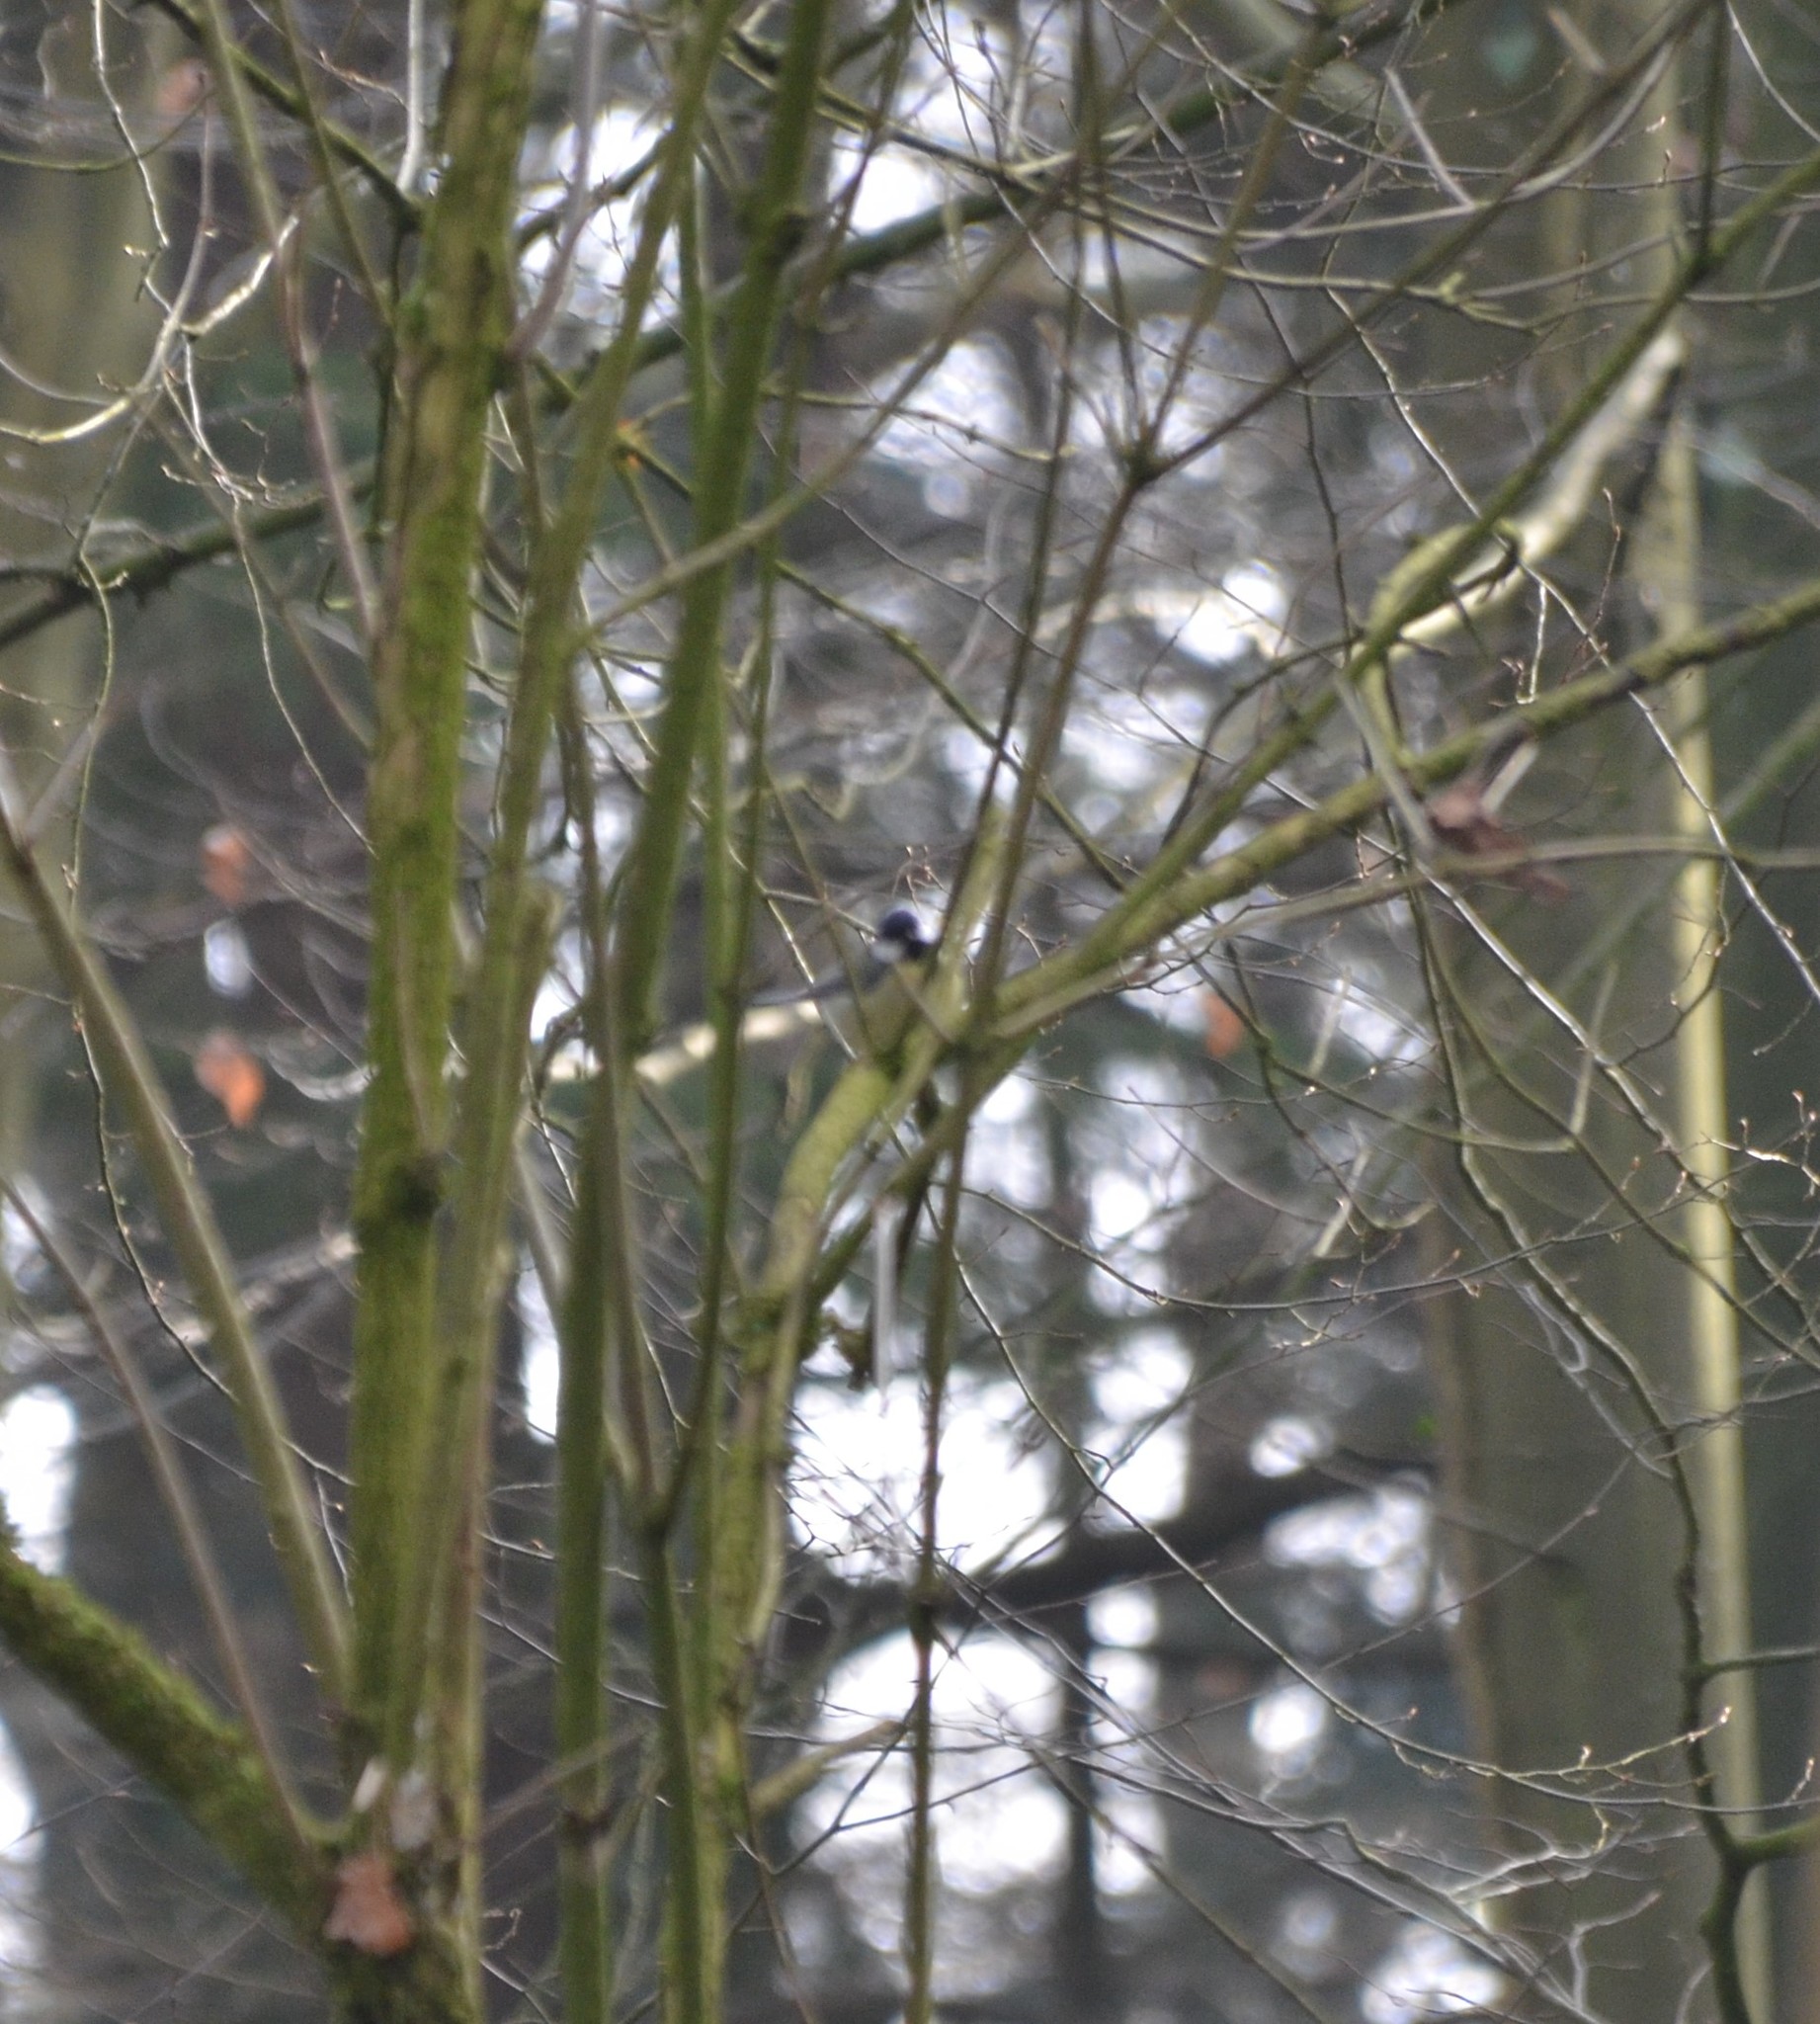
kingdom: Animalia
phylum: Chordata
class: Aves
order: Passeriformes
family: Paridae
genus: Parus
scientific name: Parus major
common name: Great tit
